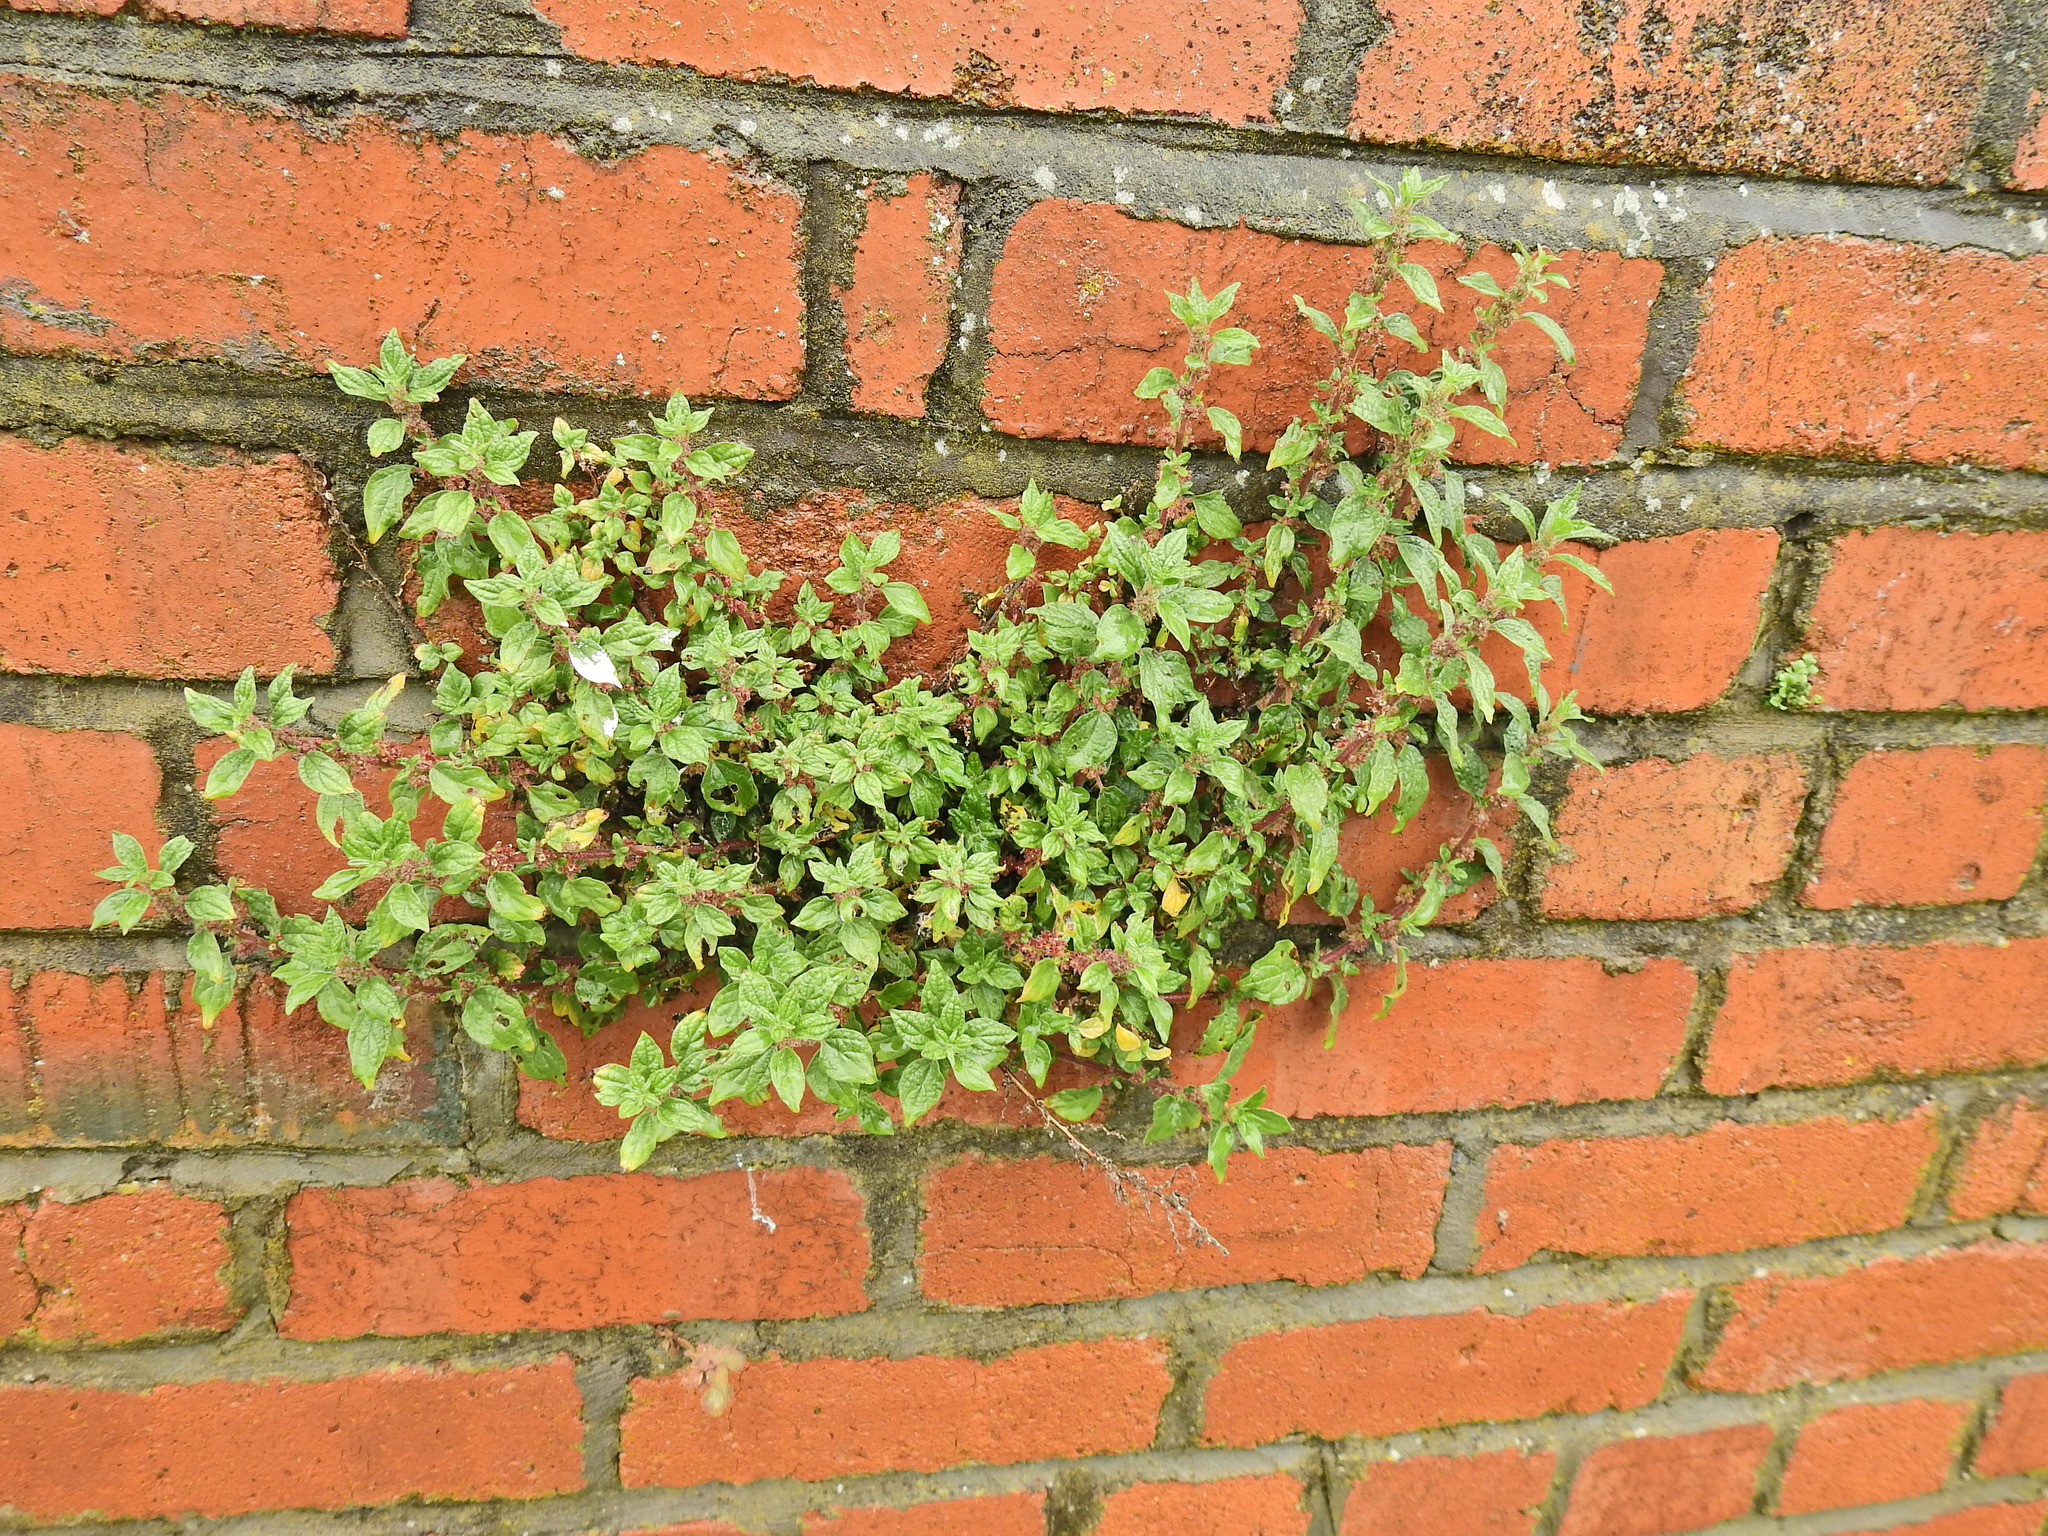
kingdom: Plantae
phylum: Tracheophyta
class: Magnoliopsida
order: Rosales
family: Urticaceae
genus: Parietaria
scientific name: Parietaria judaica
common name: Pellitory-of-the-wall
